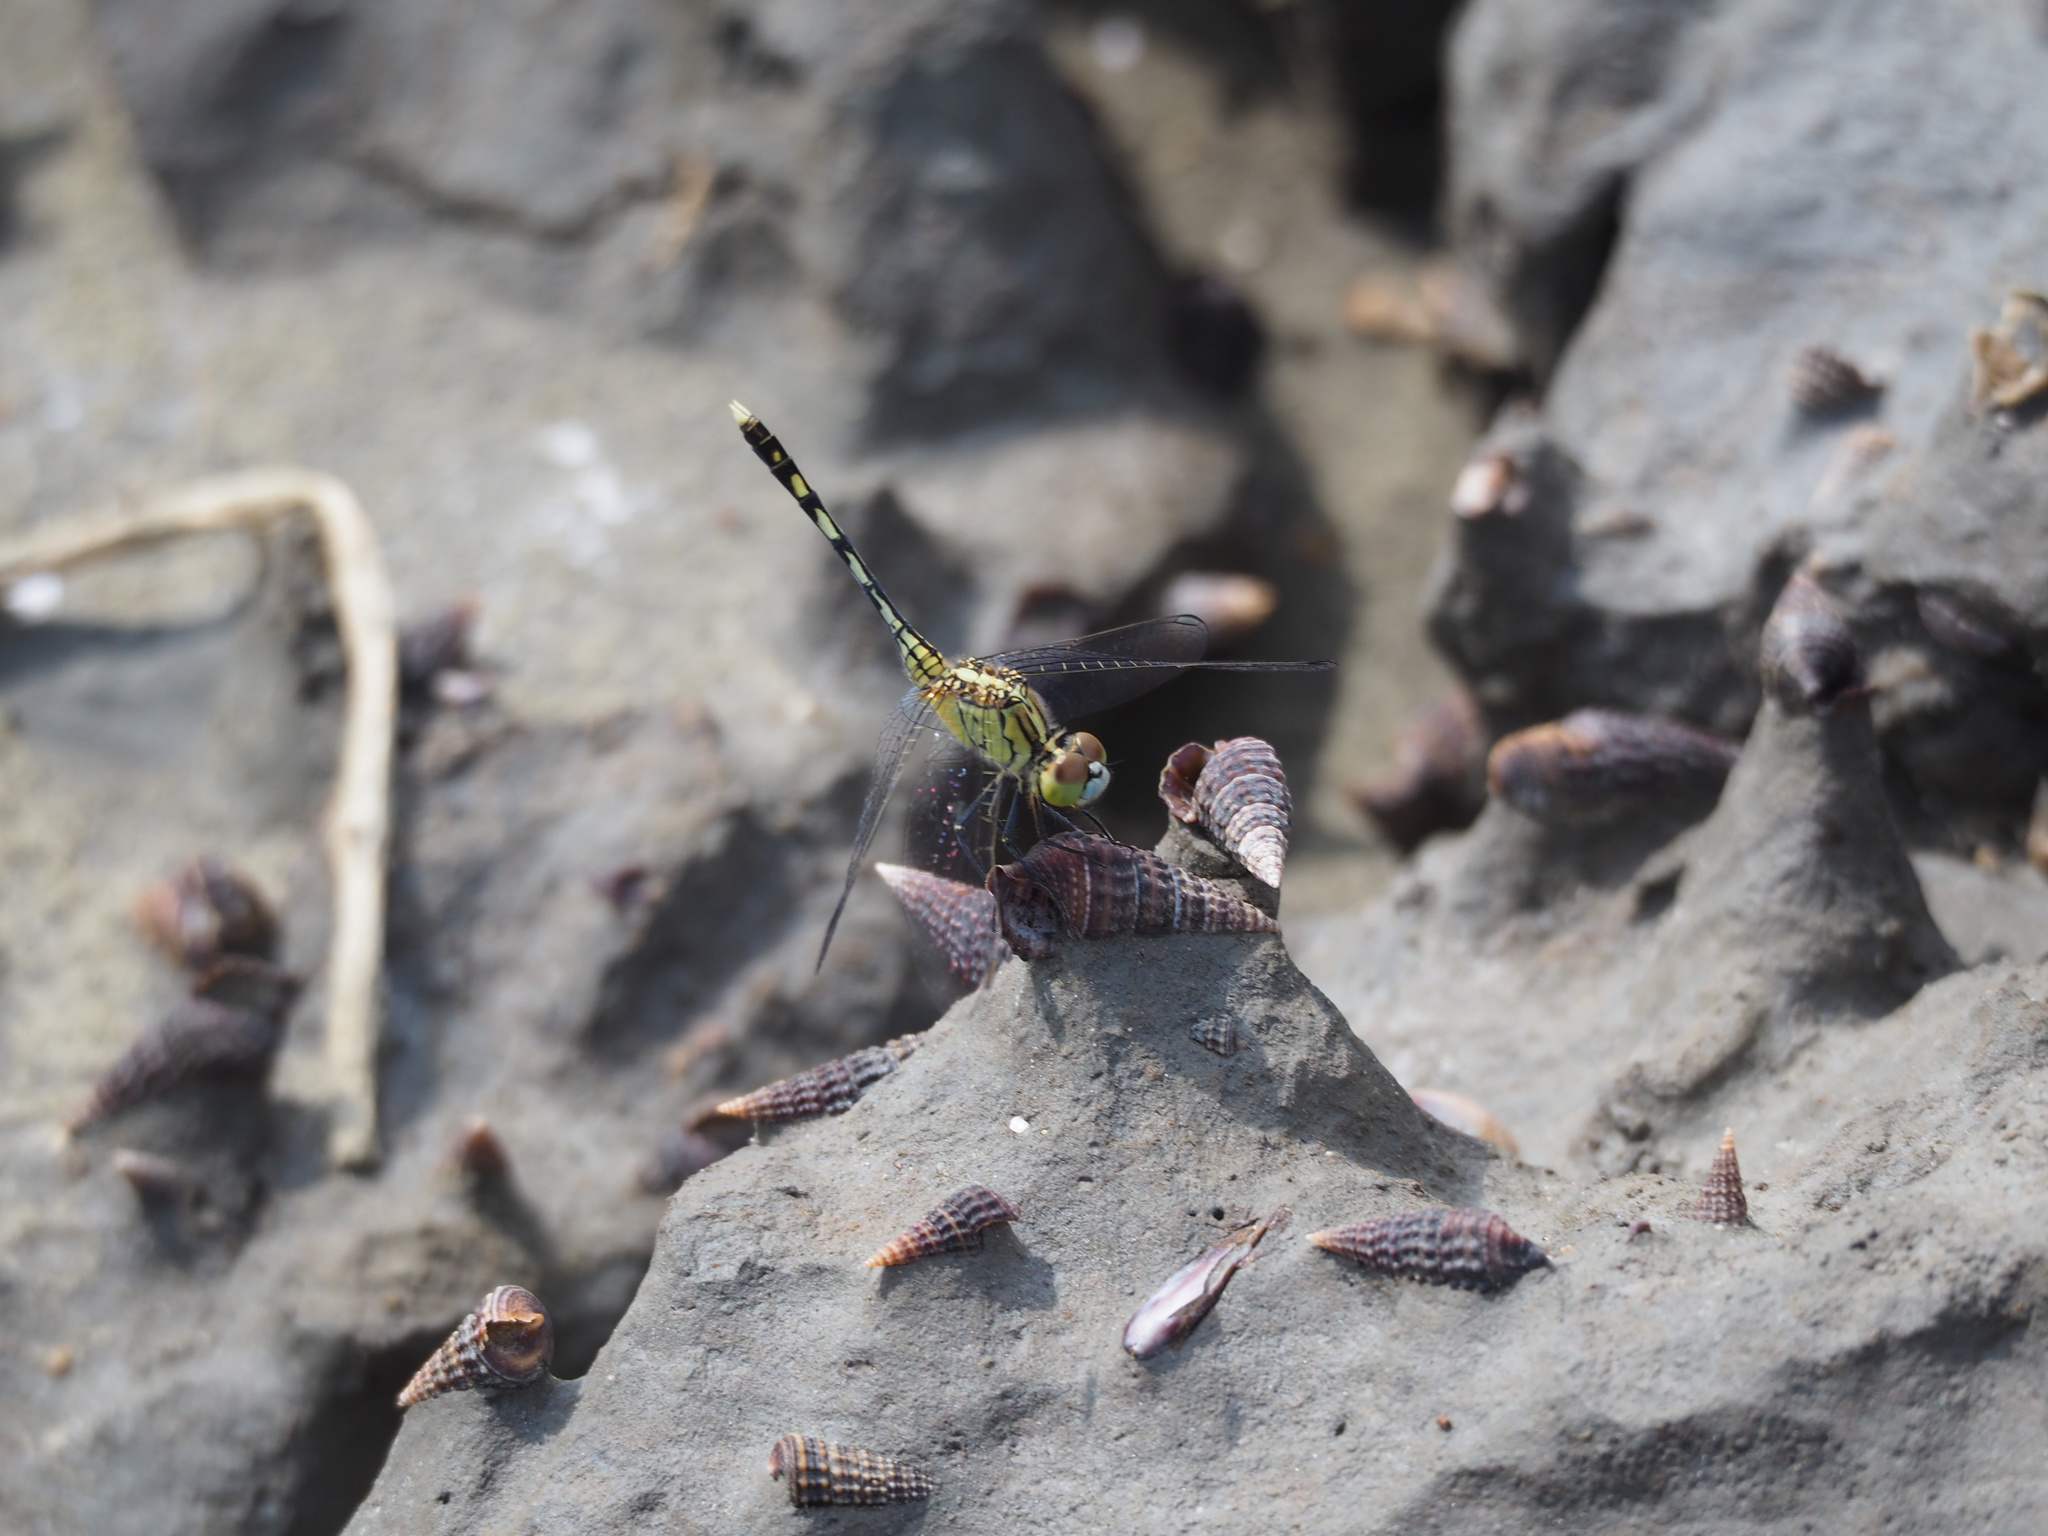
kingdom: Animalia
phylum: Arthropoda
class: Insecta
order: Odonata
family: Libellulidae
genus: Diplacodes
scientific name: Diplacodes trivialis
